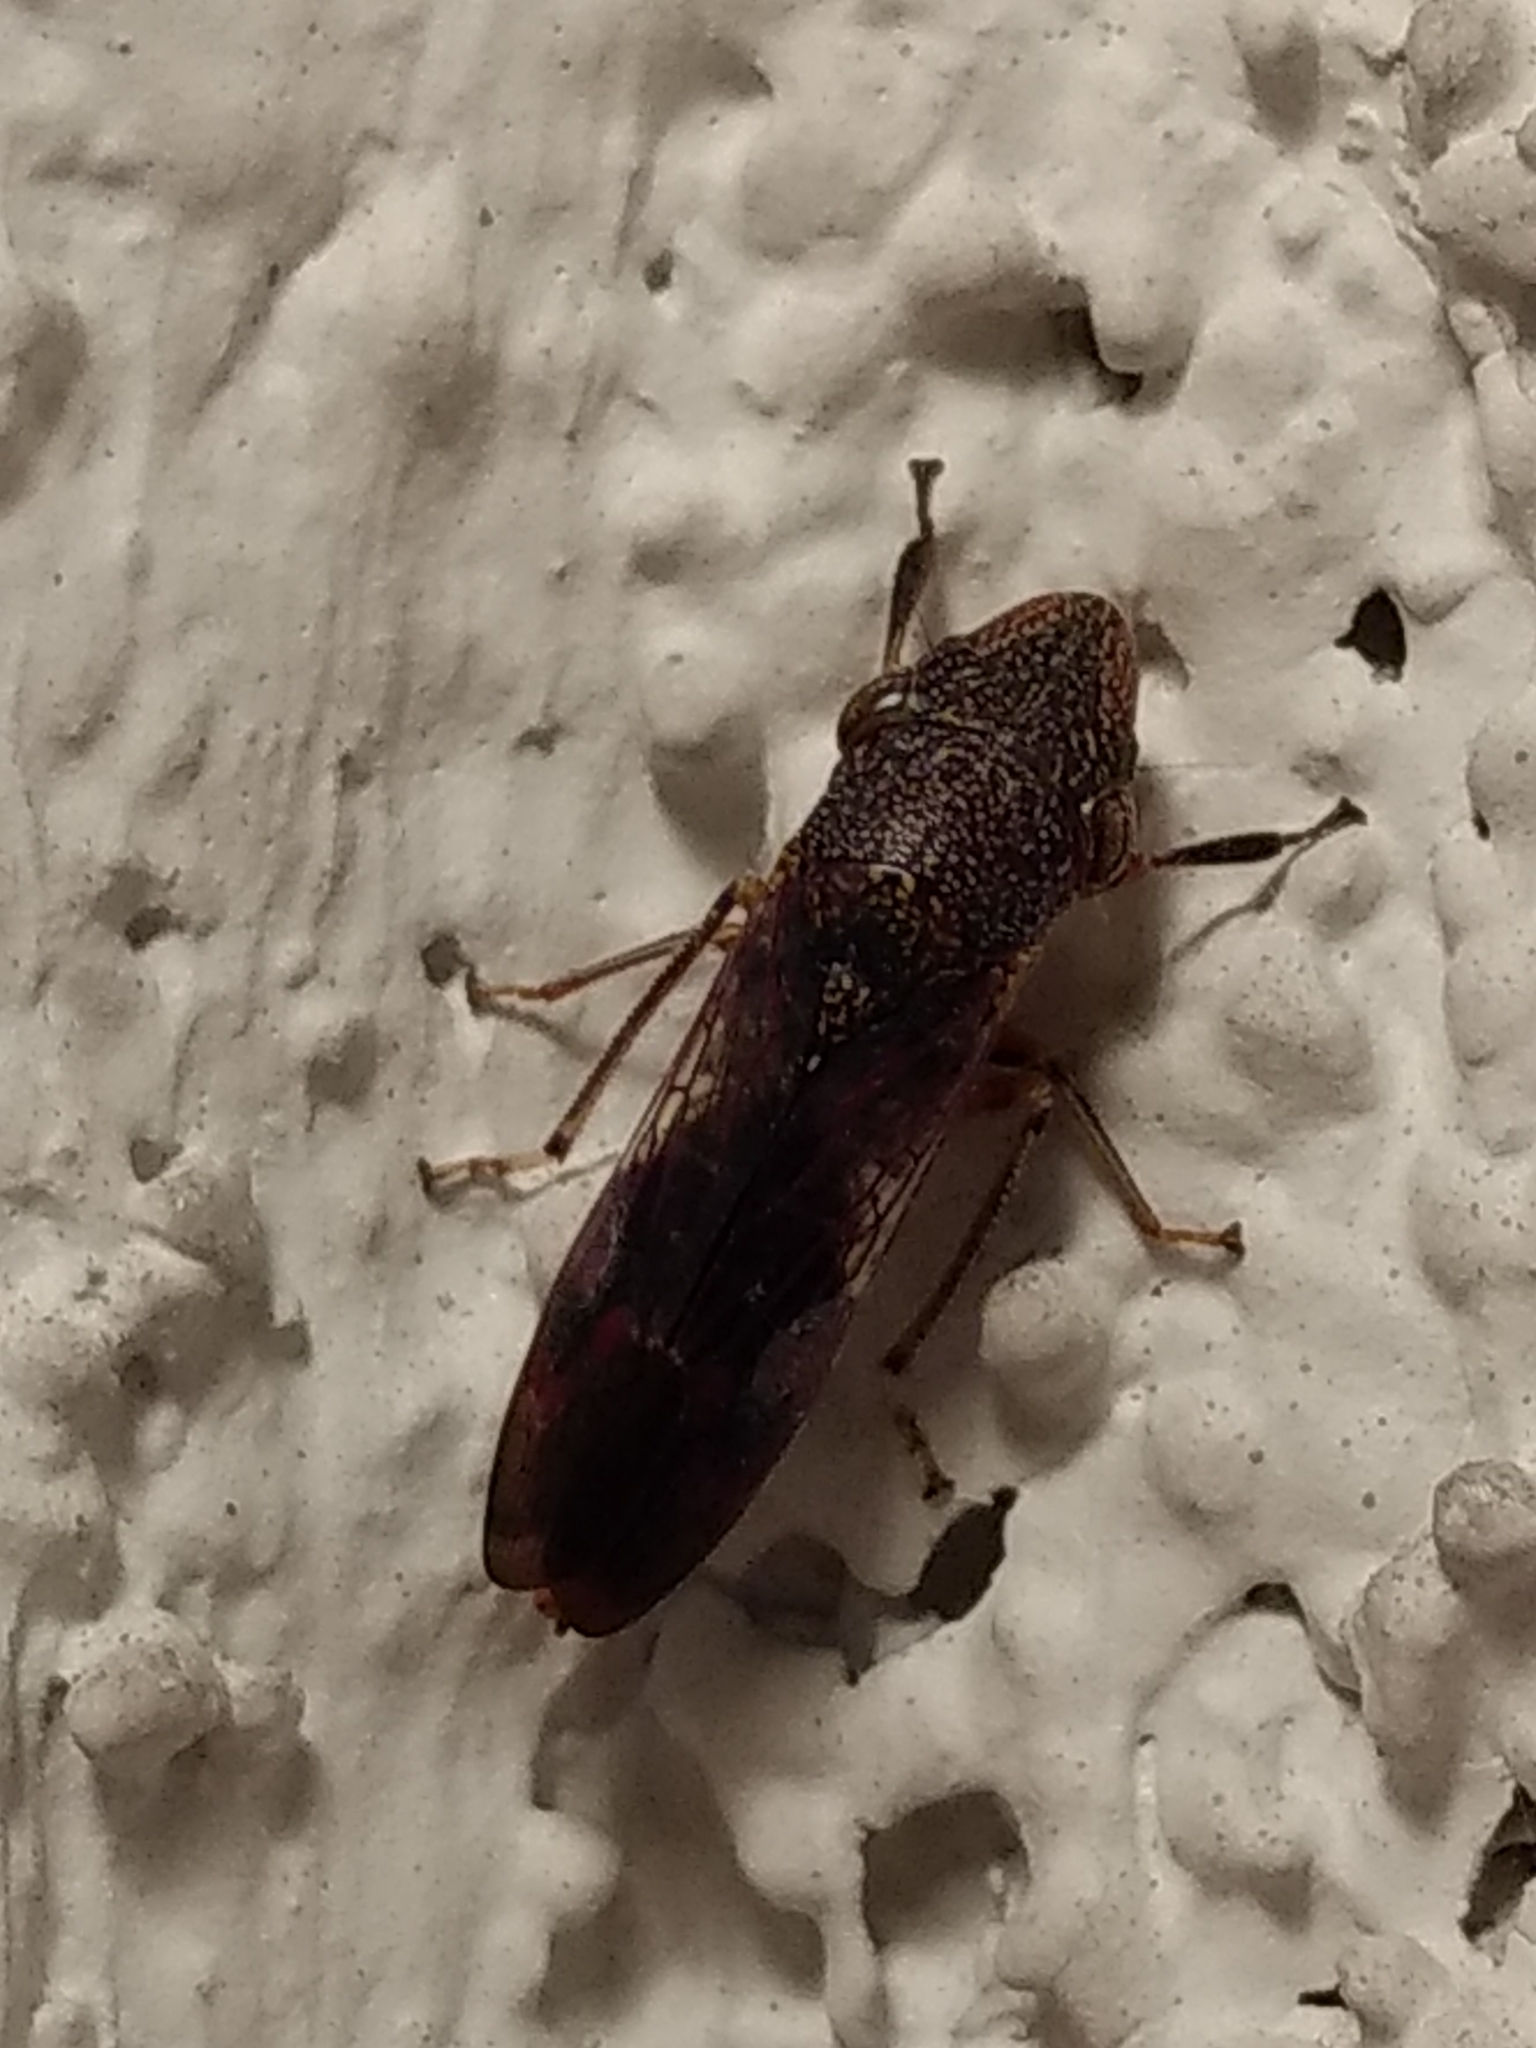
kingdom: Animalia
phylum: Arthropoda
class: Insecta
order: Hemiptera
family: Cicadellidae
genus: Homalodisca
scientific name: Homalodisca vitripennis
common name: Glassy-winged sharpshooter
